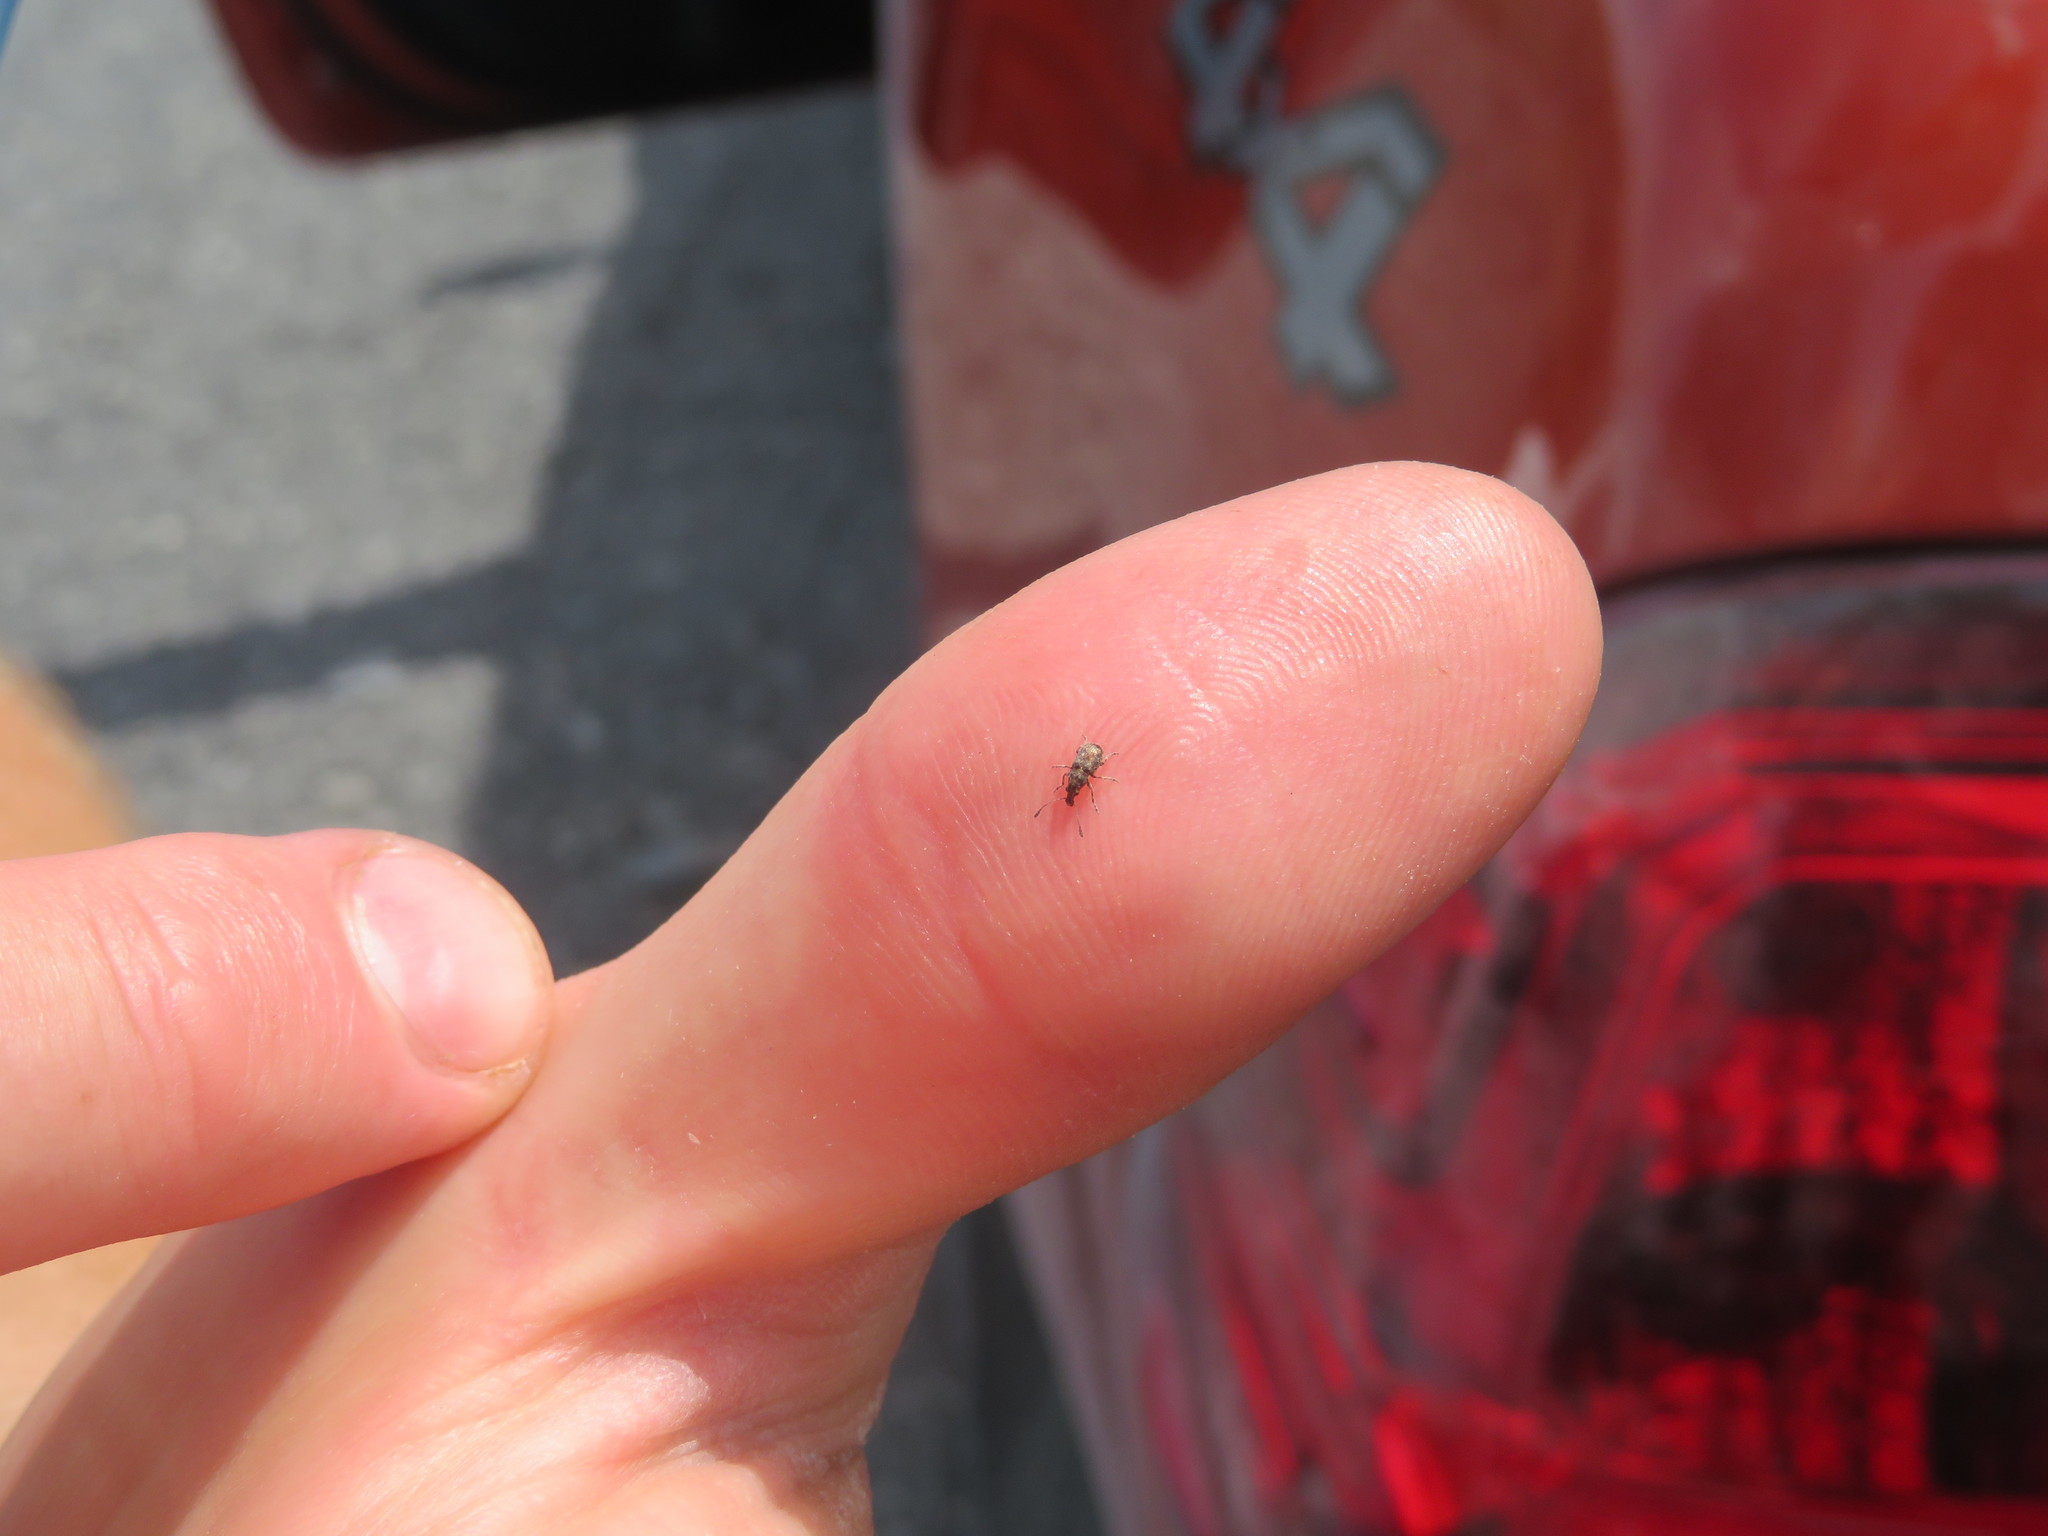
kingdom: Animalia
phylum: Arthropoda
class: Insecta
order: Coleoptera
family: Anthribidae
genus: Sharpius
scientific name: Sharpius
